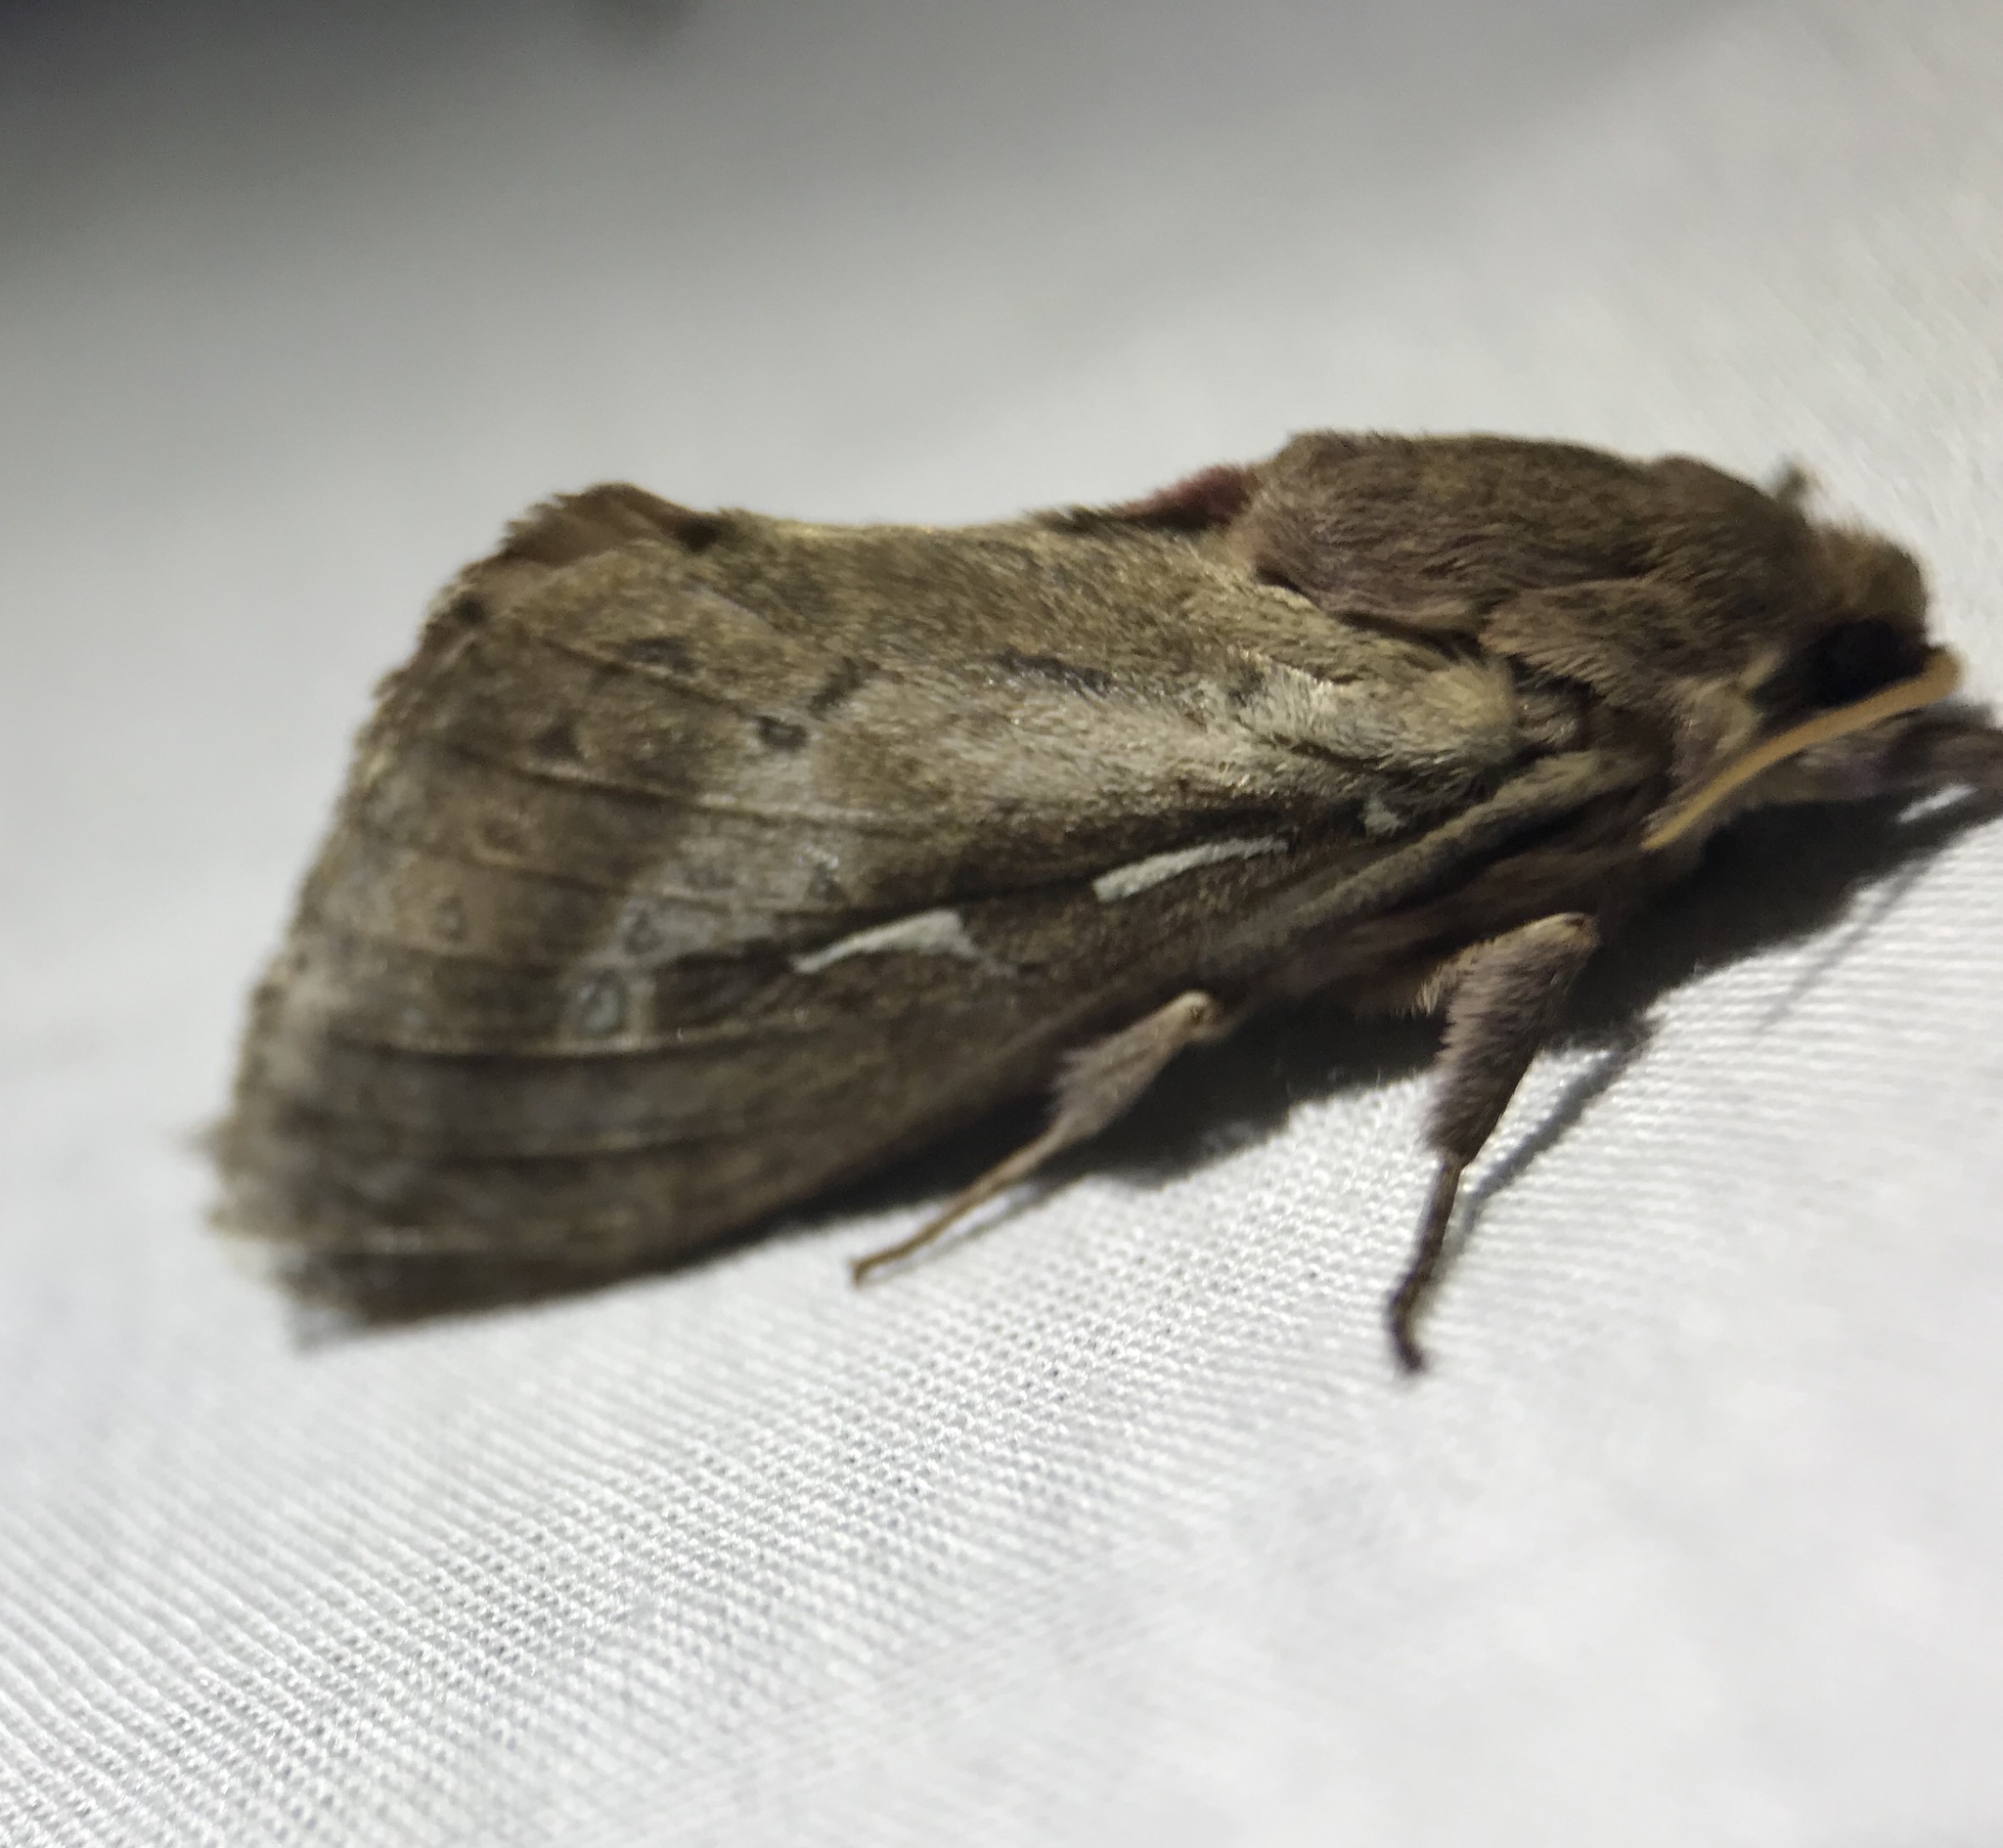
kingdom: Animalia
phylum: Arthropoda
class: Insecta
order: Lepidoptera
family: Hepialidae
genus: Wiseana
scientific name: Wiseana signata
